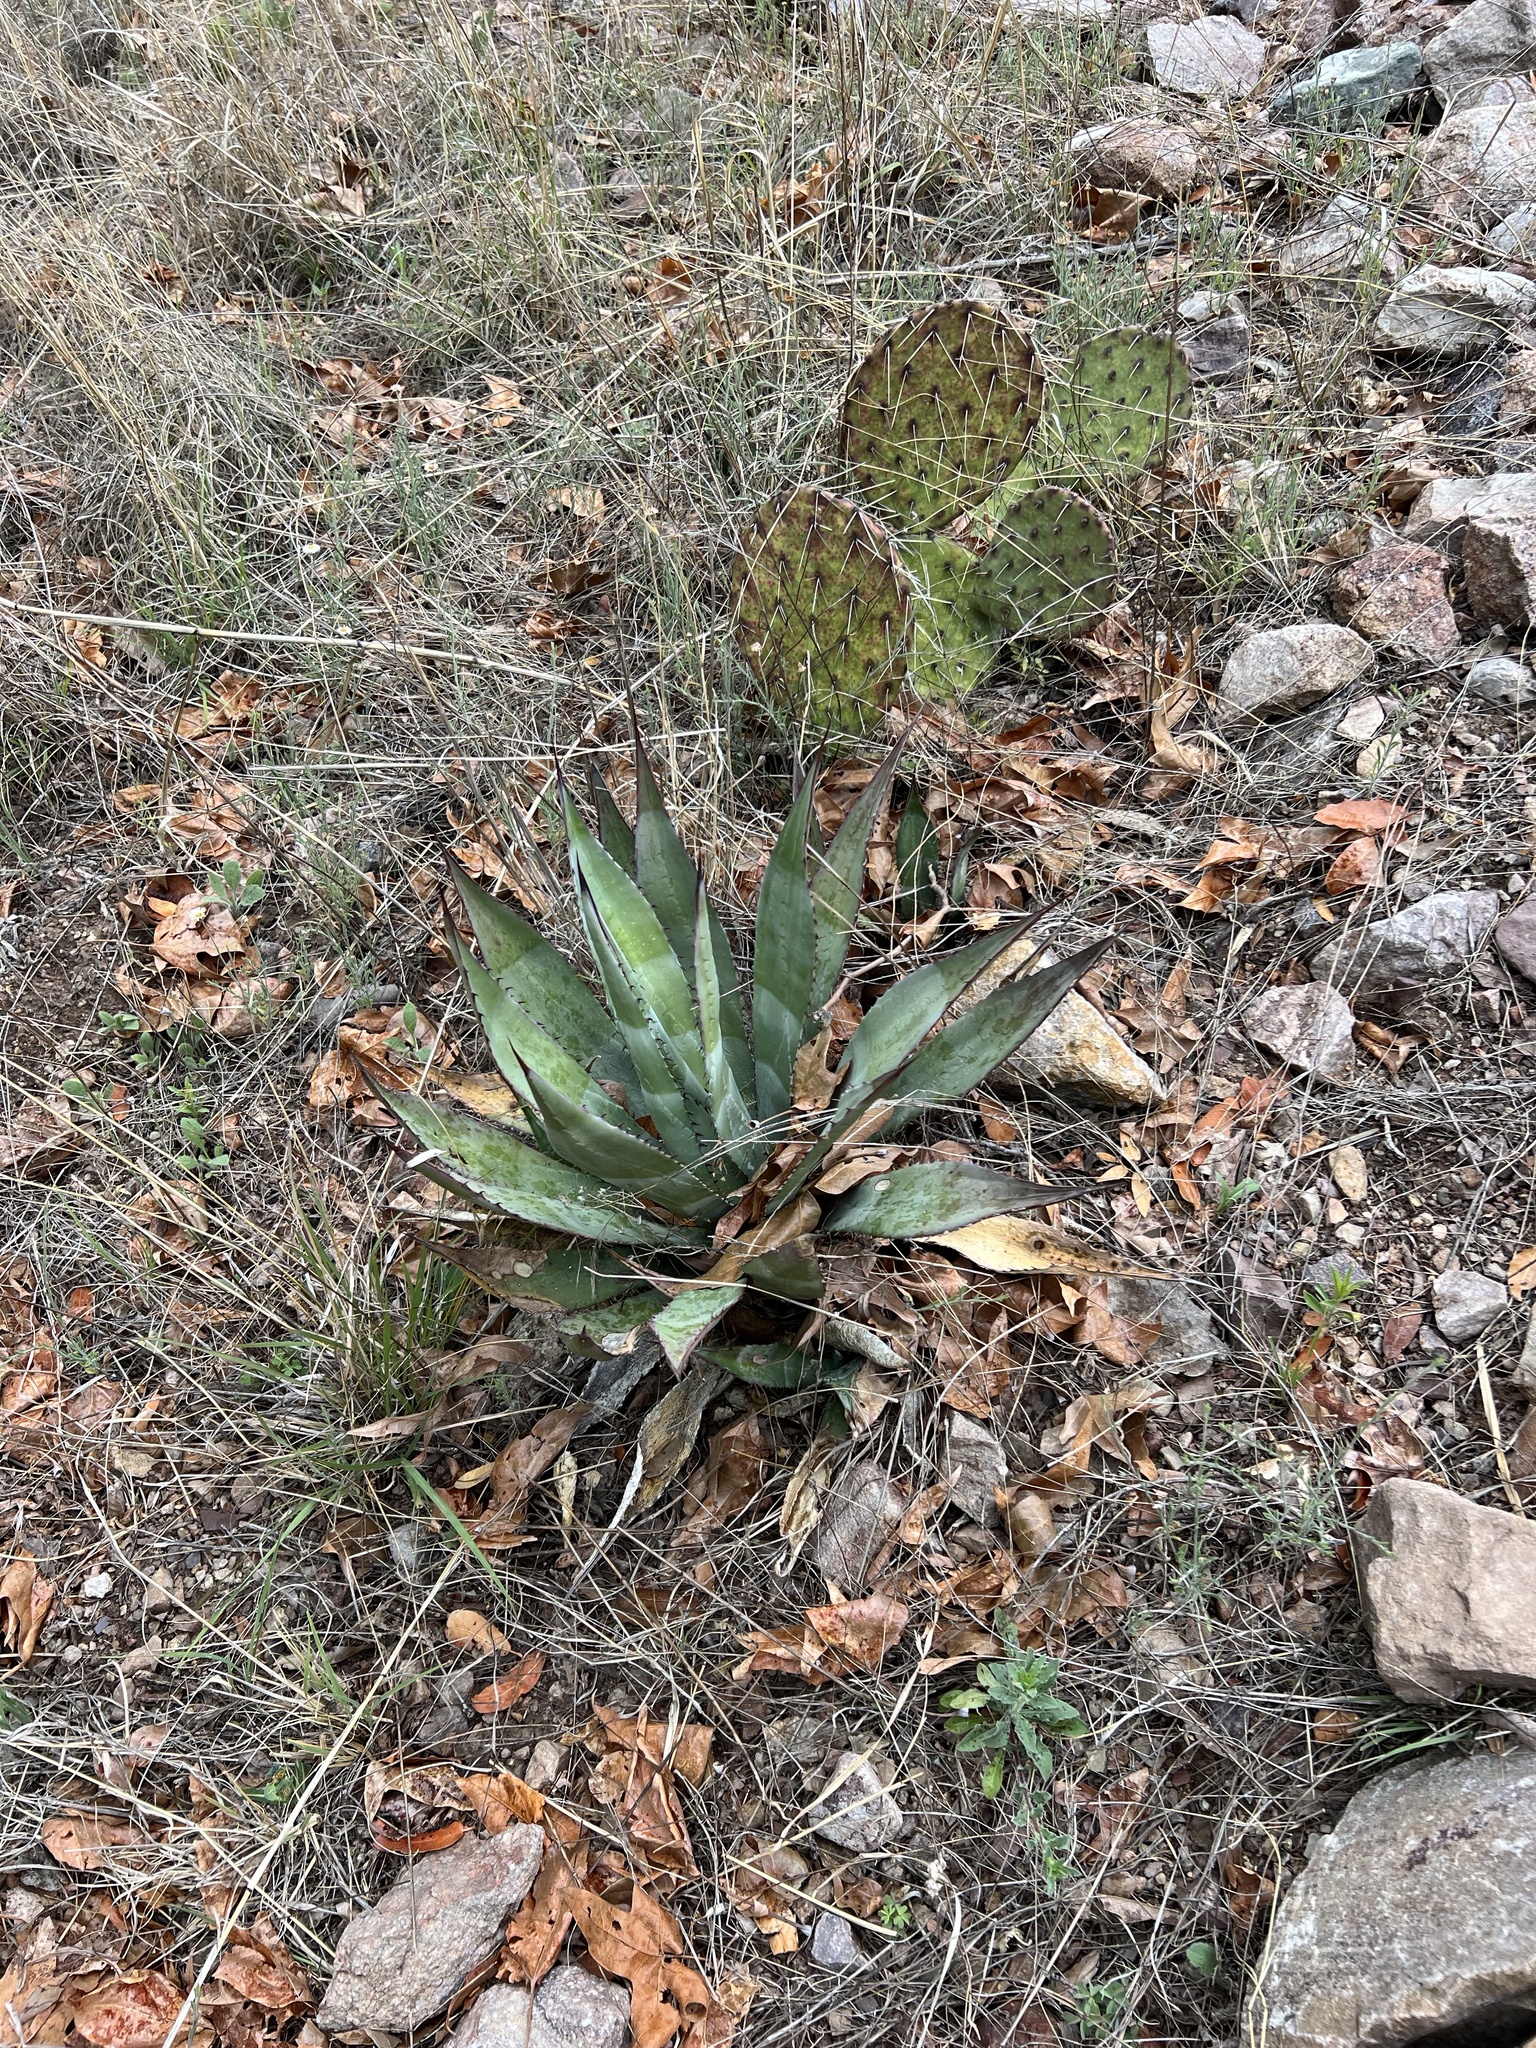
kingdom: Plantae
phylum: Tracheophyta
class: Liliopsida
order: Asparagales
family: Asparagaceae
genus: Agave
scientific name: Agave palmeri
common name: Palmer agave
